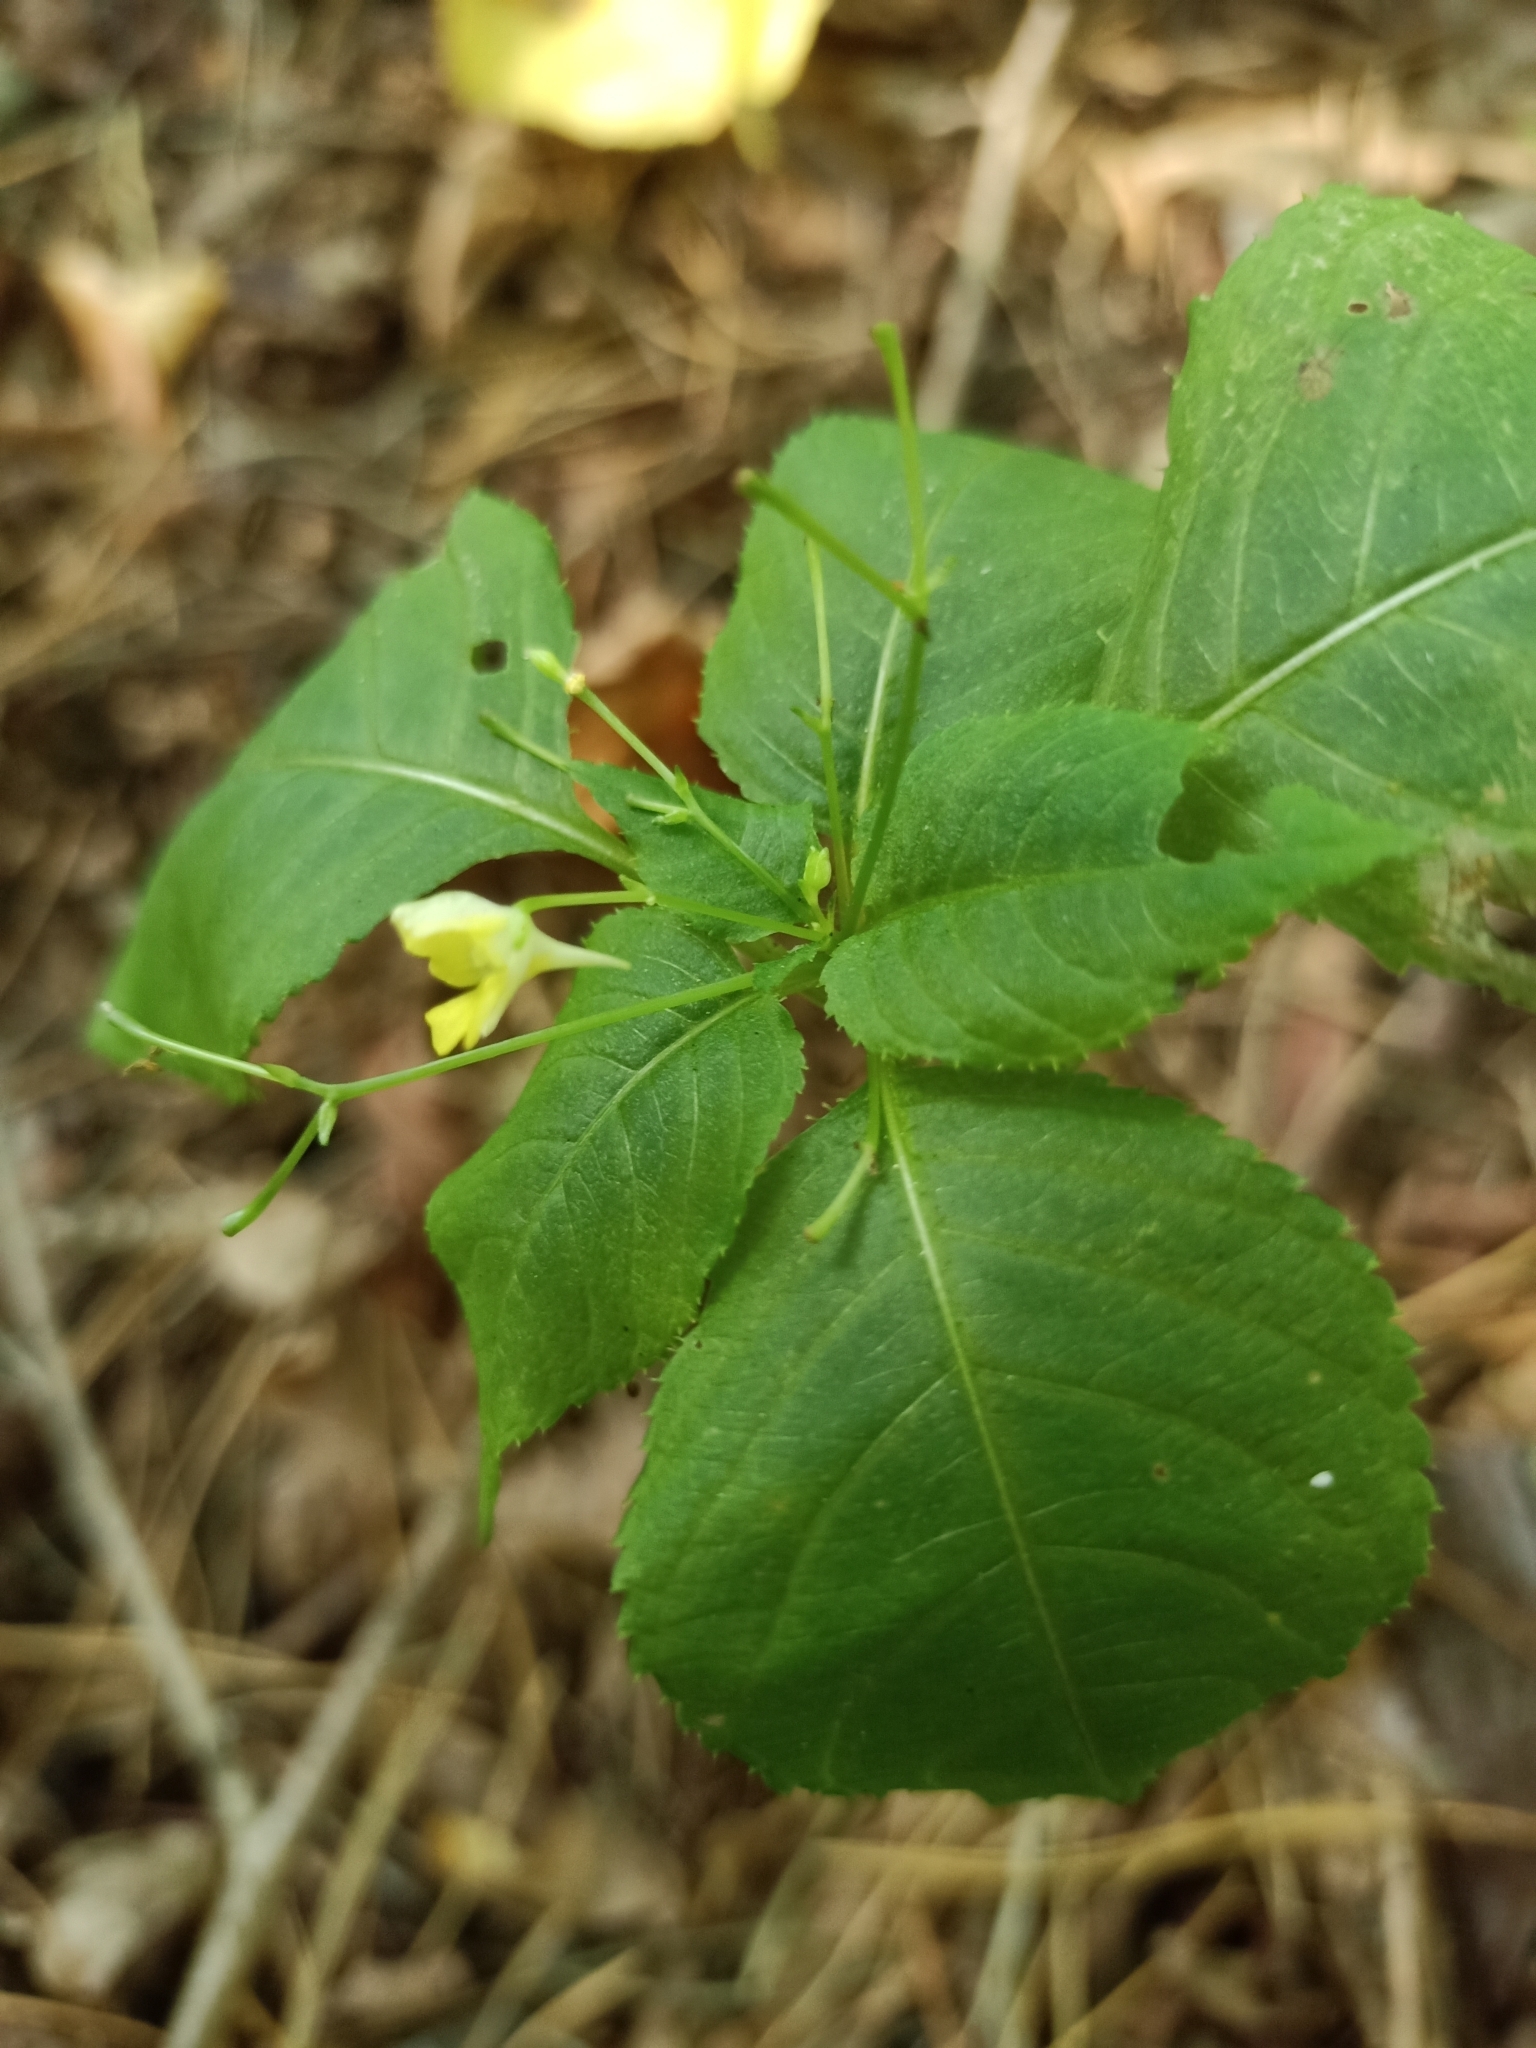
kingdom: Plantae
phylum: Tracheophyta
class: Magnoliopsida
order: Ericales
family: Balsaminaceae
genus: Impatiens
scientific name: Impatiens parviflora
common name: Small balsam
